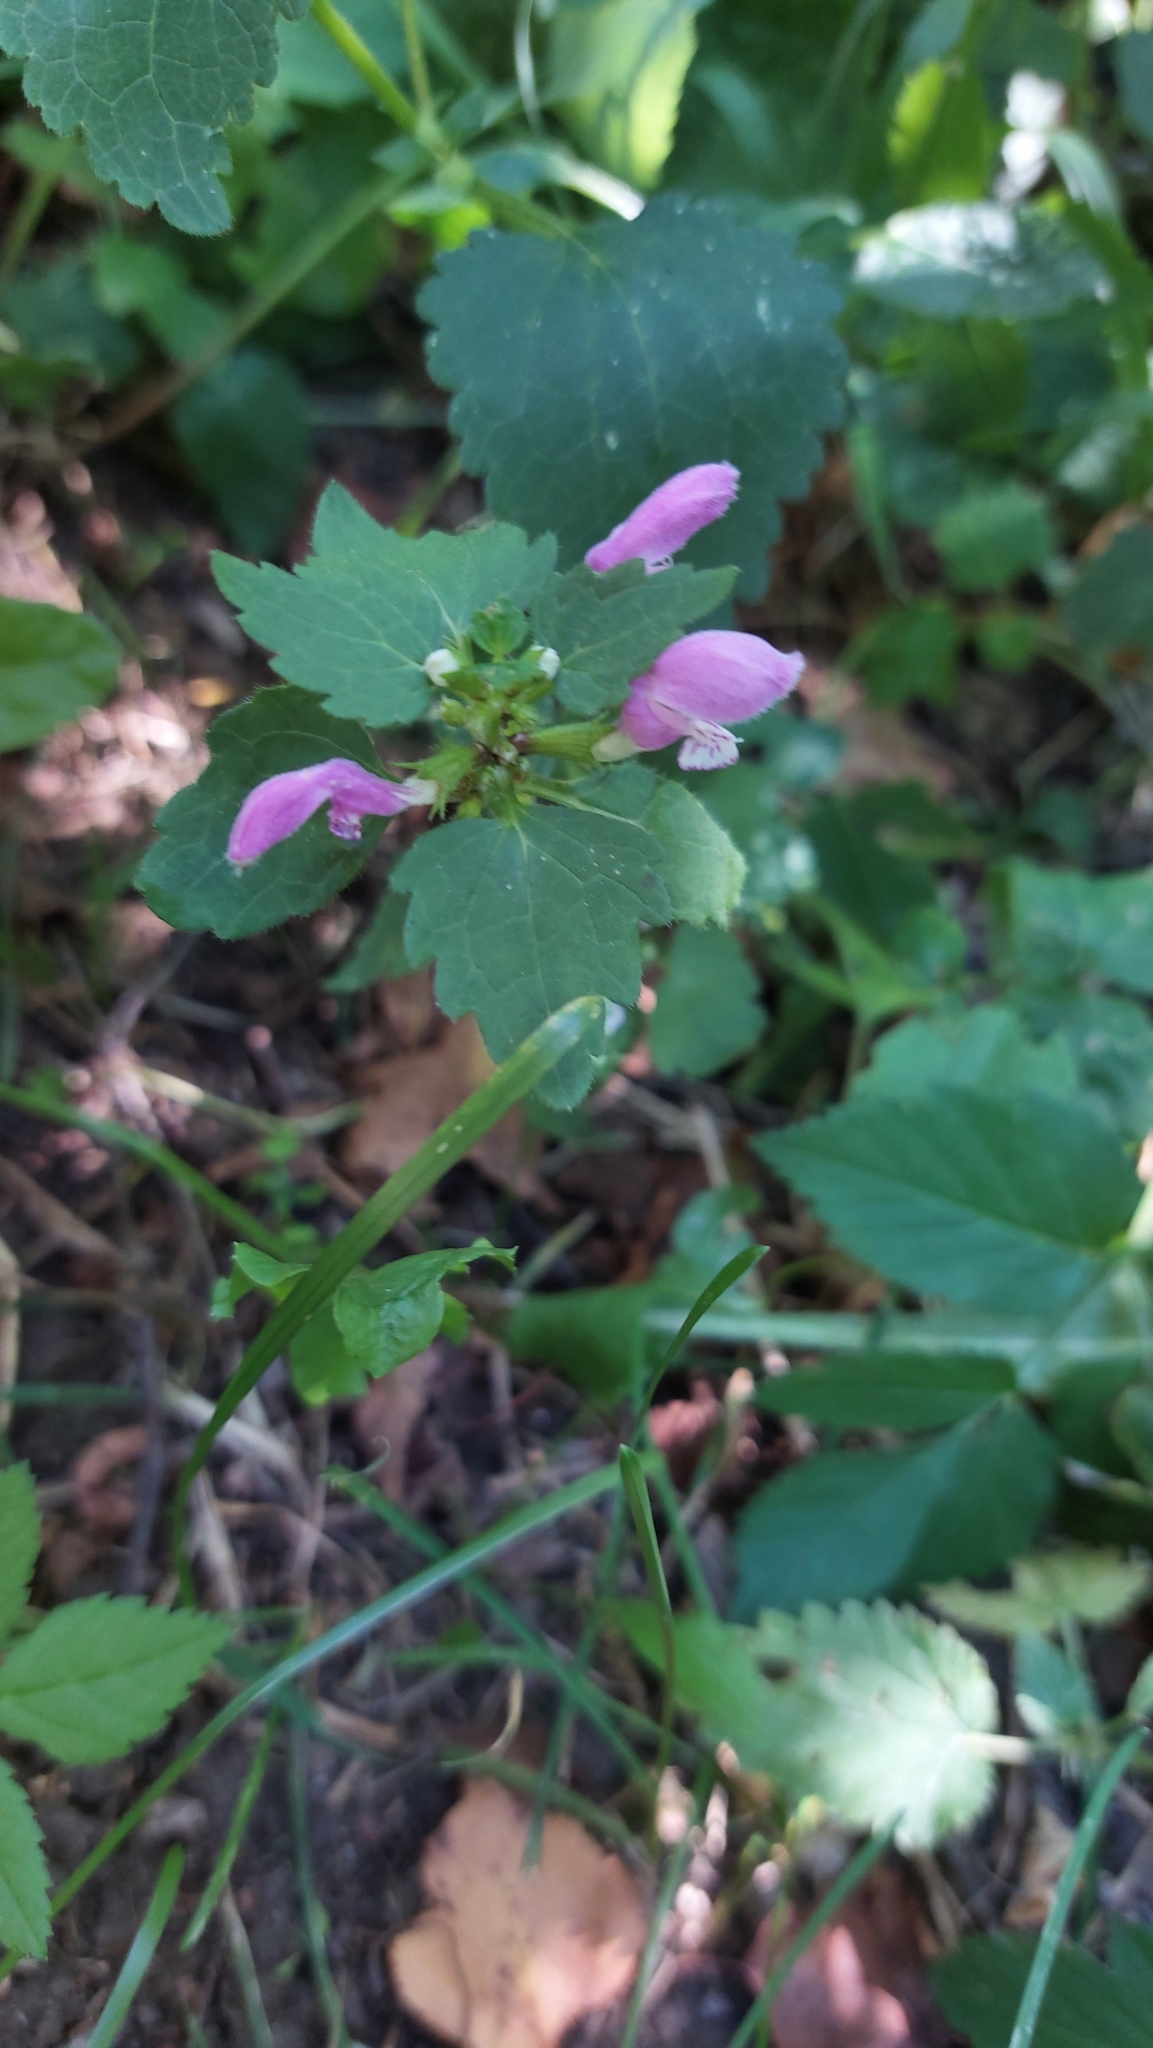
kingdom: Plantae
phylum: Tracheophyta
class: Magnoliopsida
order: Lamiales
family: Lamiaceae
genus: Lamium
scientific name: Lamium maculatum
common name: Spotted dead-nettle
